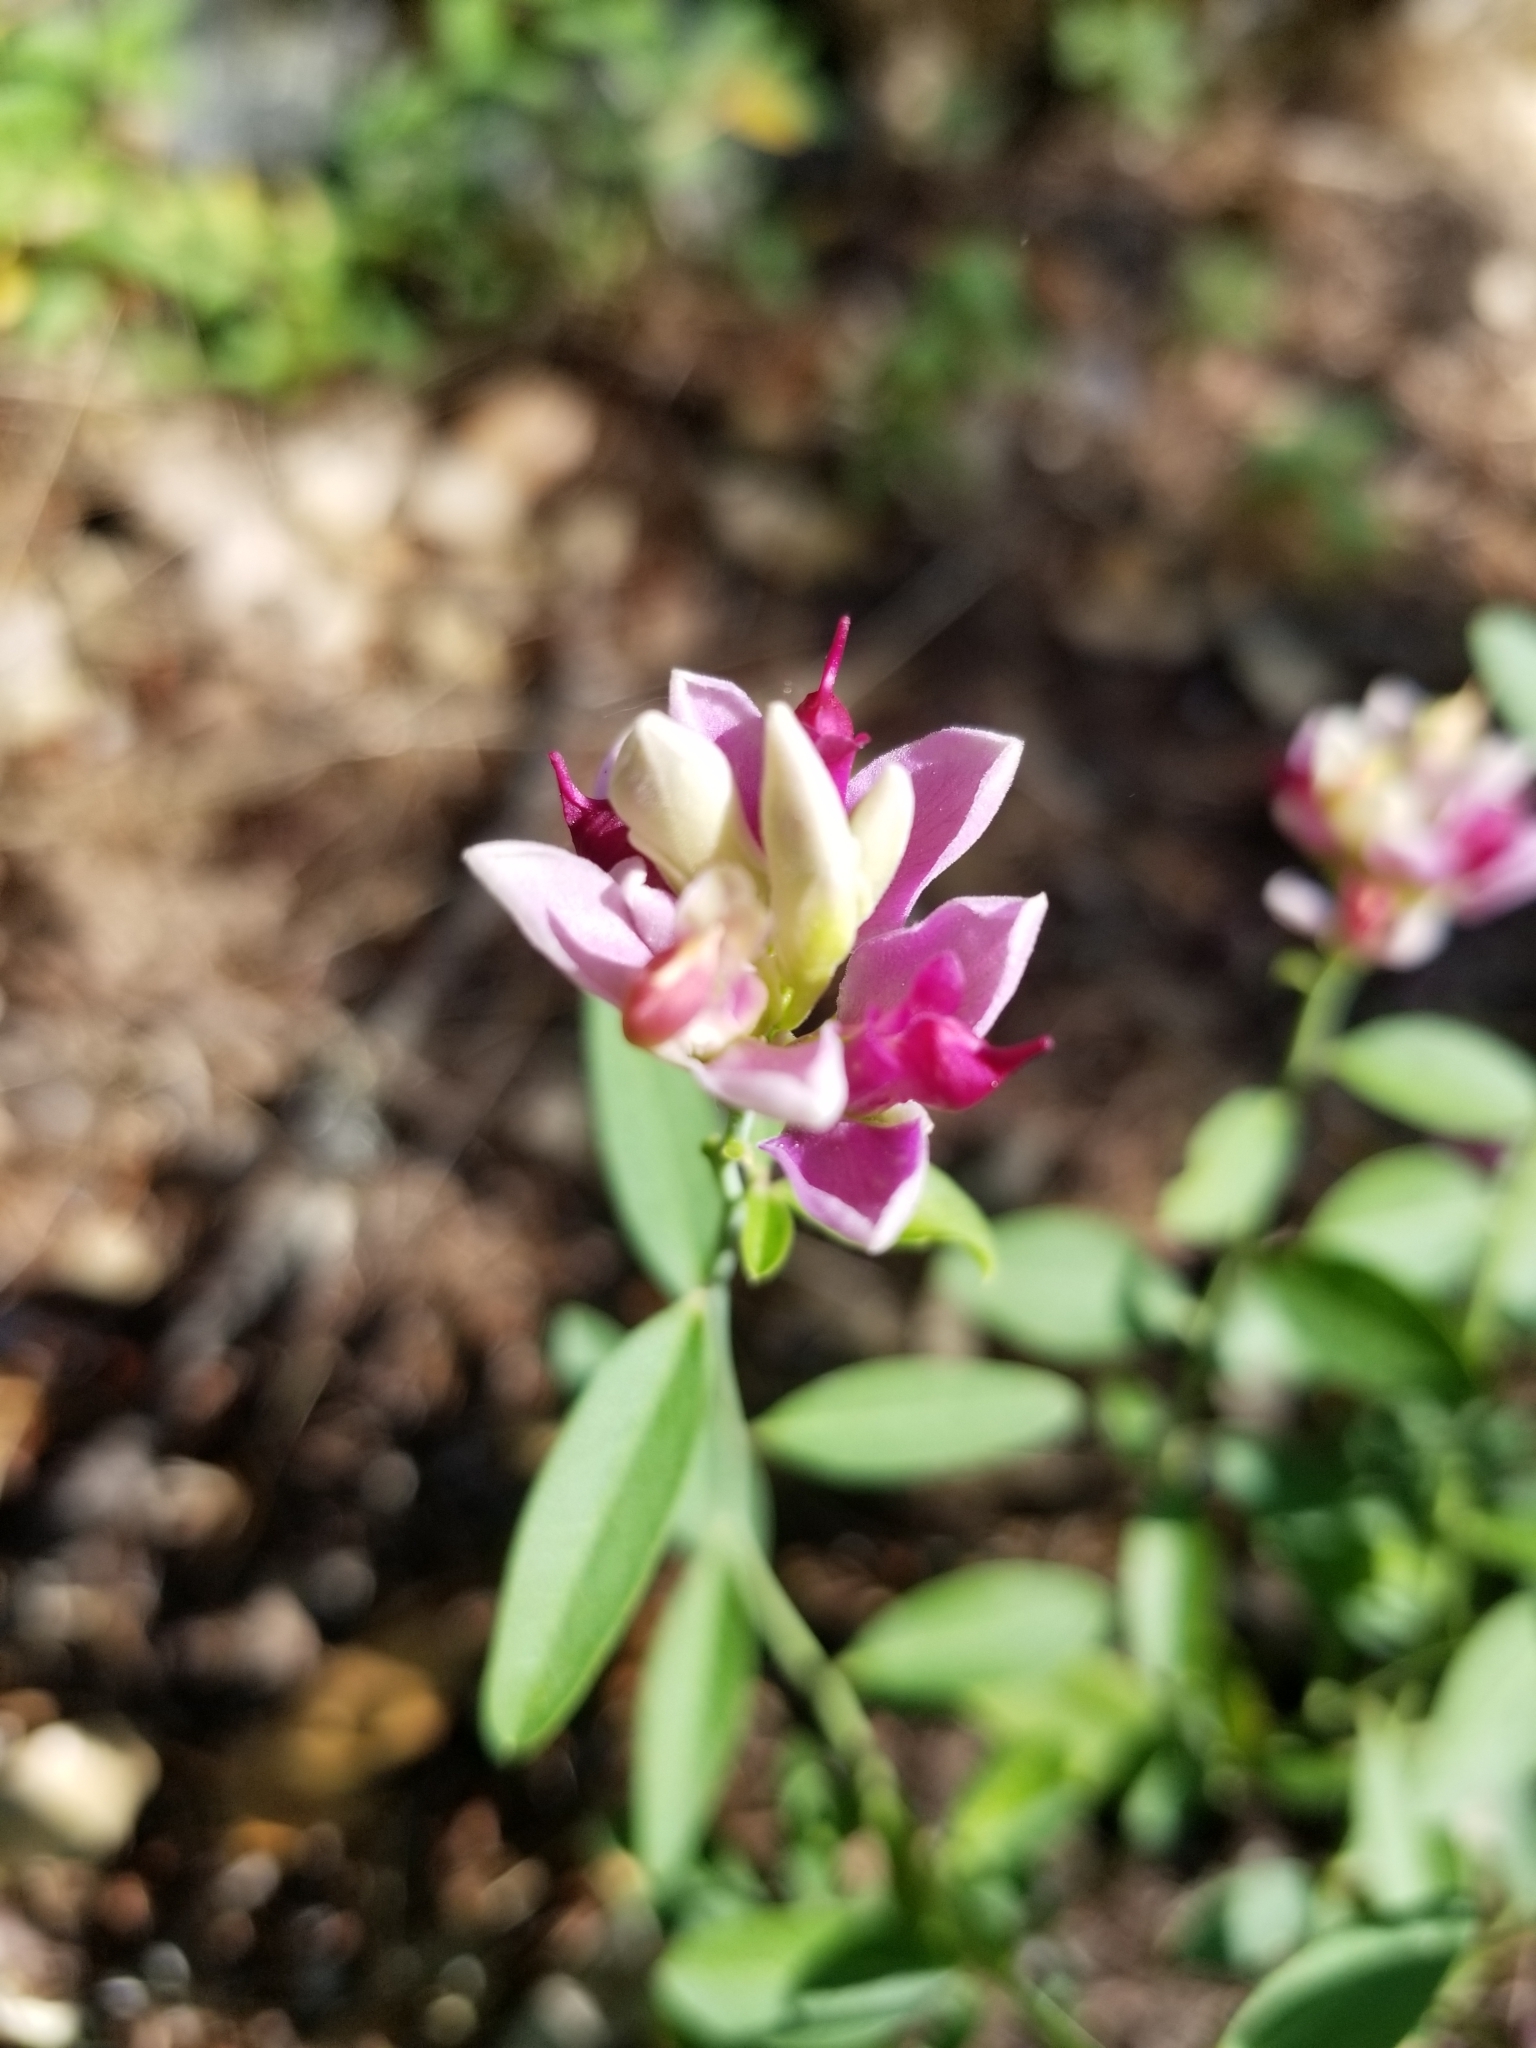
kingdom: Plantae
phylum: Tracheophyta
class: Magnoliopsida
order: Fabales
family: Polygalaceae
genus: Rhinotropis
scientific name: Rhinotropis cornuta
